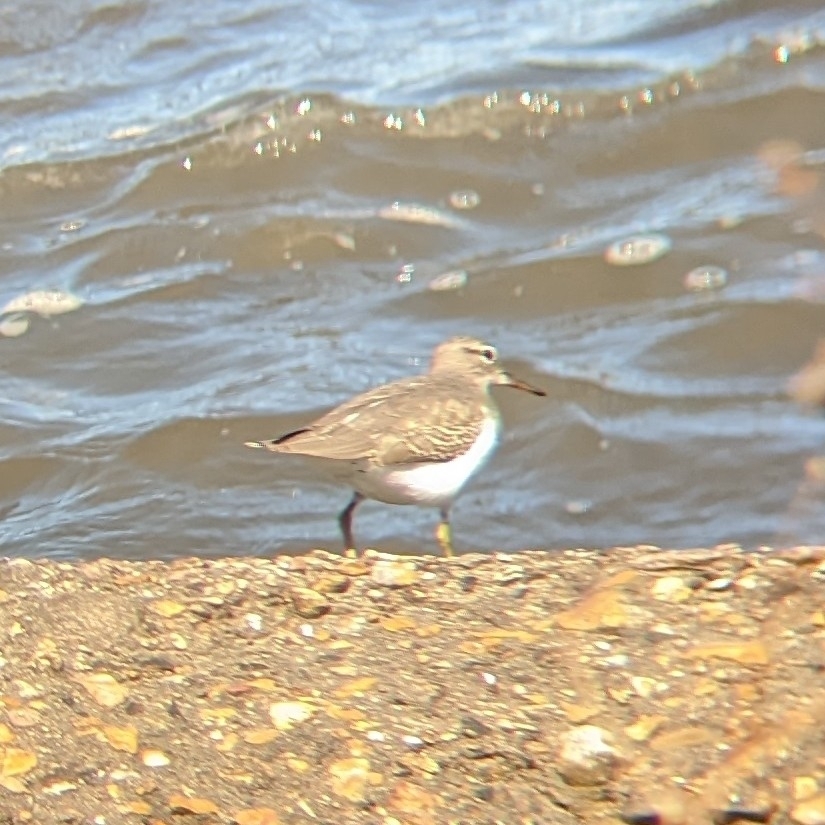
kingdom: Animalia
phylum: Chordata
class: Aves
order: Charadriiformes
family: Scolopacidae
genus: Actitis
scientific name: Actitis macularius
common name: Spotted sandpiper
